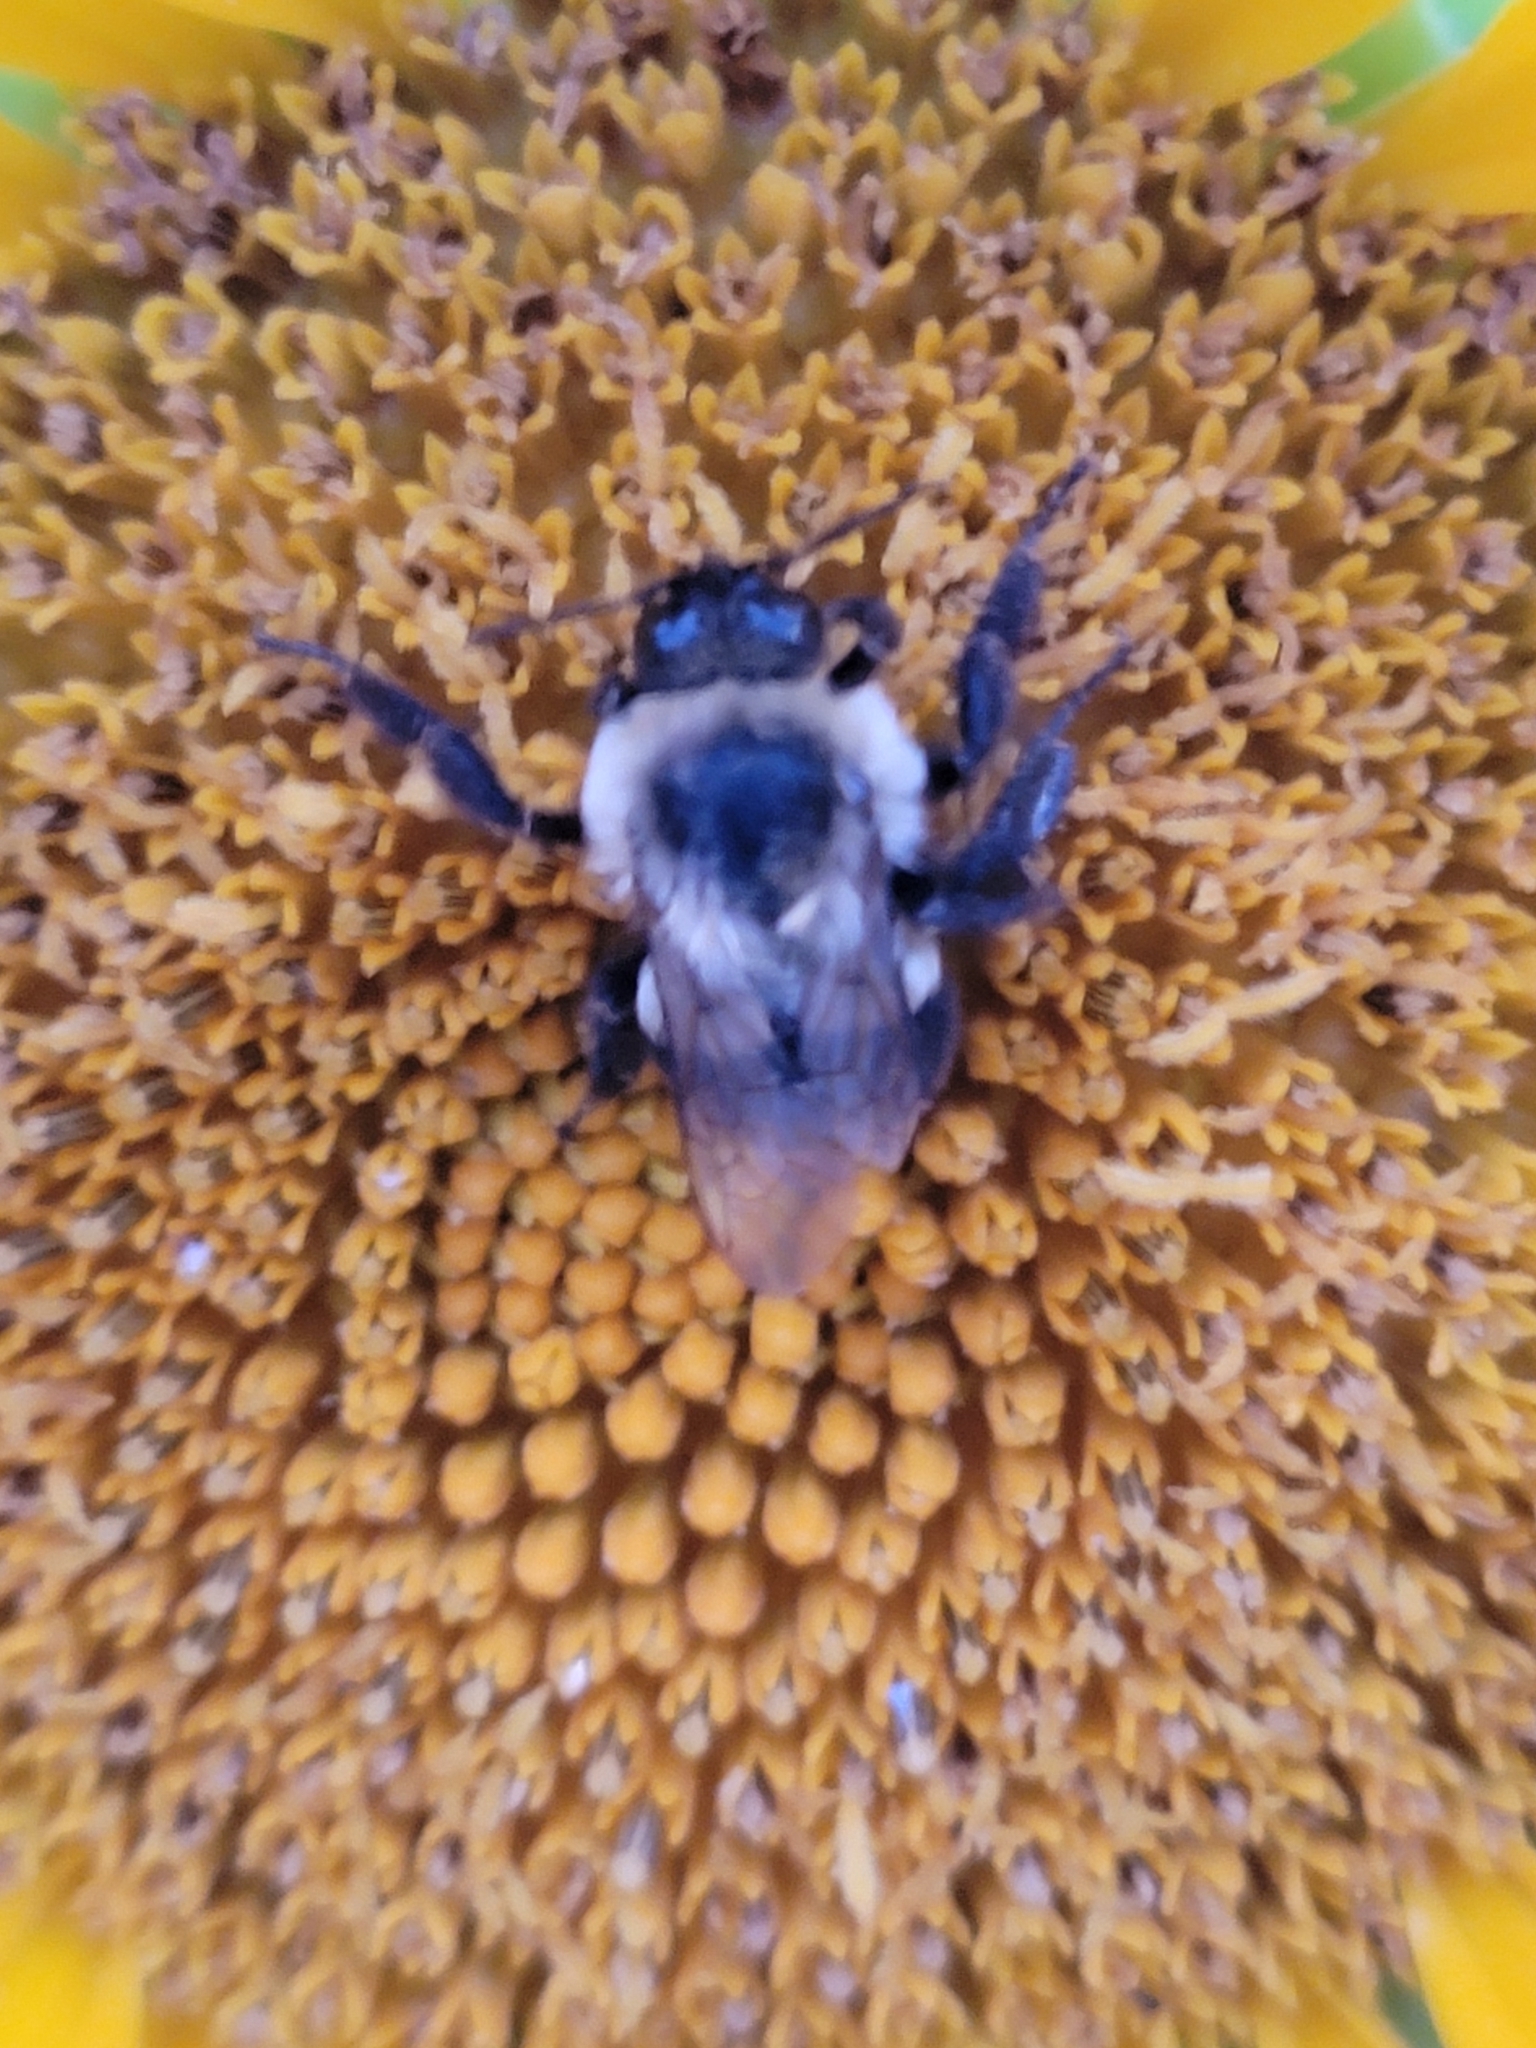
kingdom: Animalia
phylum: Arthropoda
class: Insecta
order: Hymenoptera
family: Apidae
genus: Bombus
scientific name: Bombus impatiens
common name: Common eastern bumble bee
